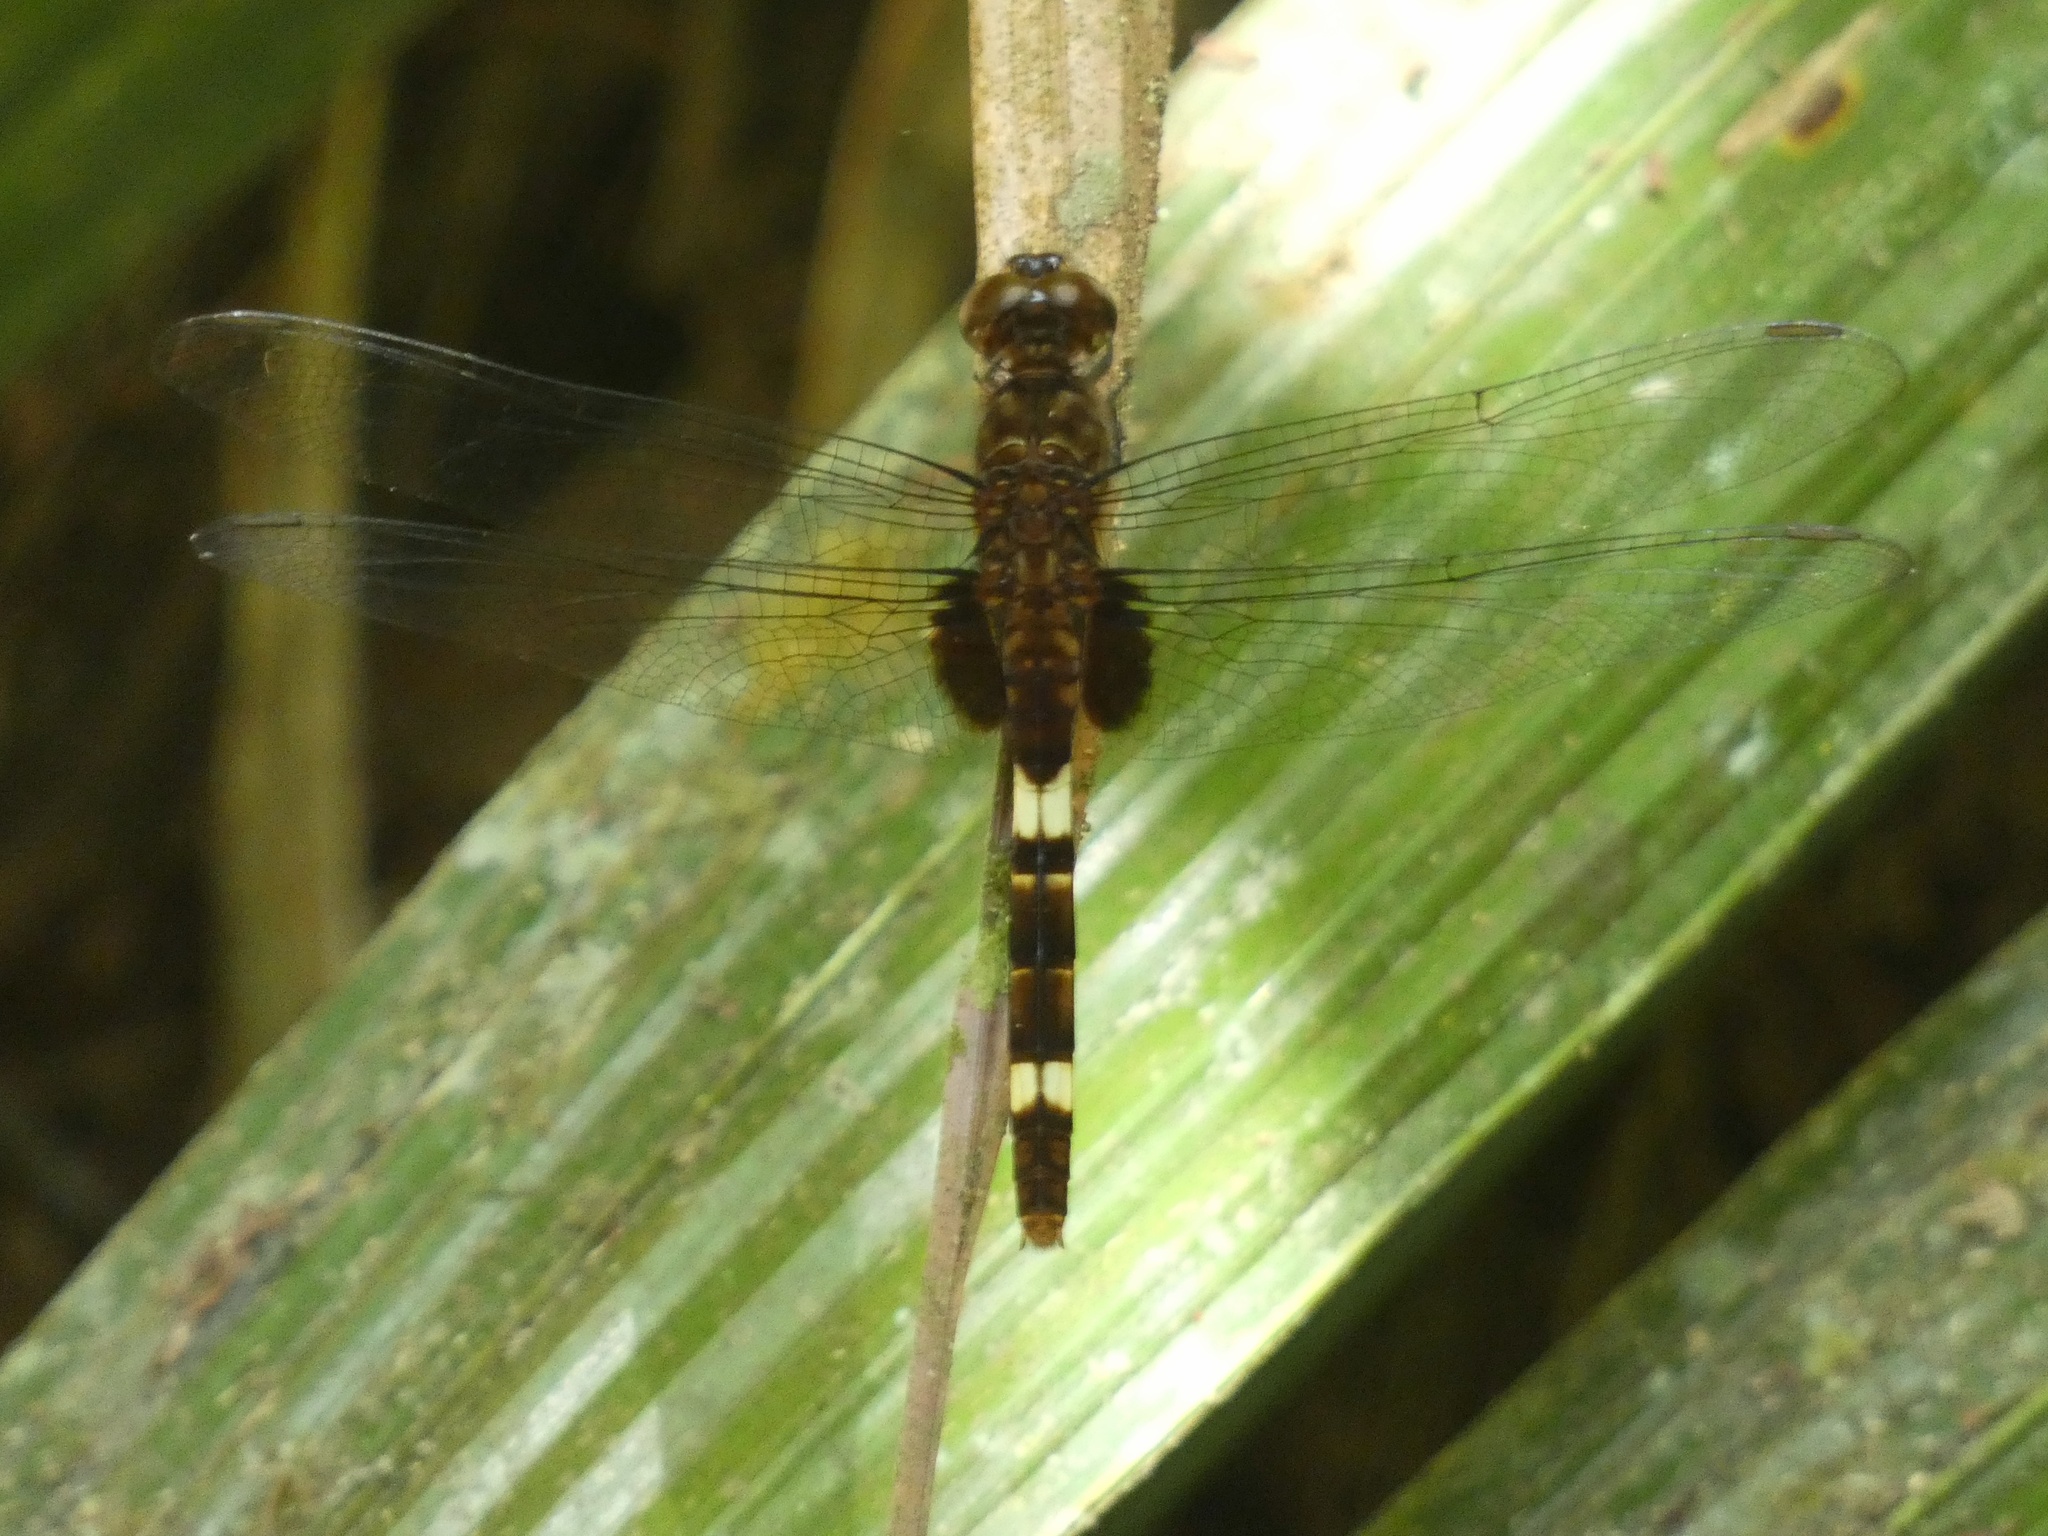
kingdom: Animalia
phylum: Arthropoda
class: Insecta
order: Odonata
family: Libellulidae
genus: Erythemis
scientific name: Erythemis attala
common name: Black pondhawk
